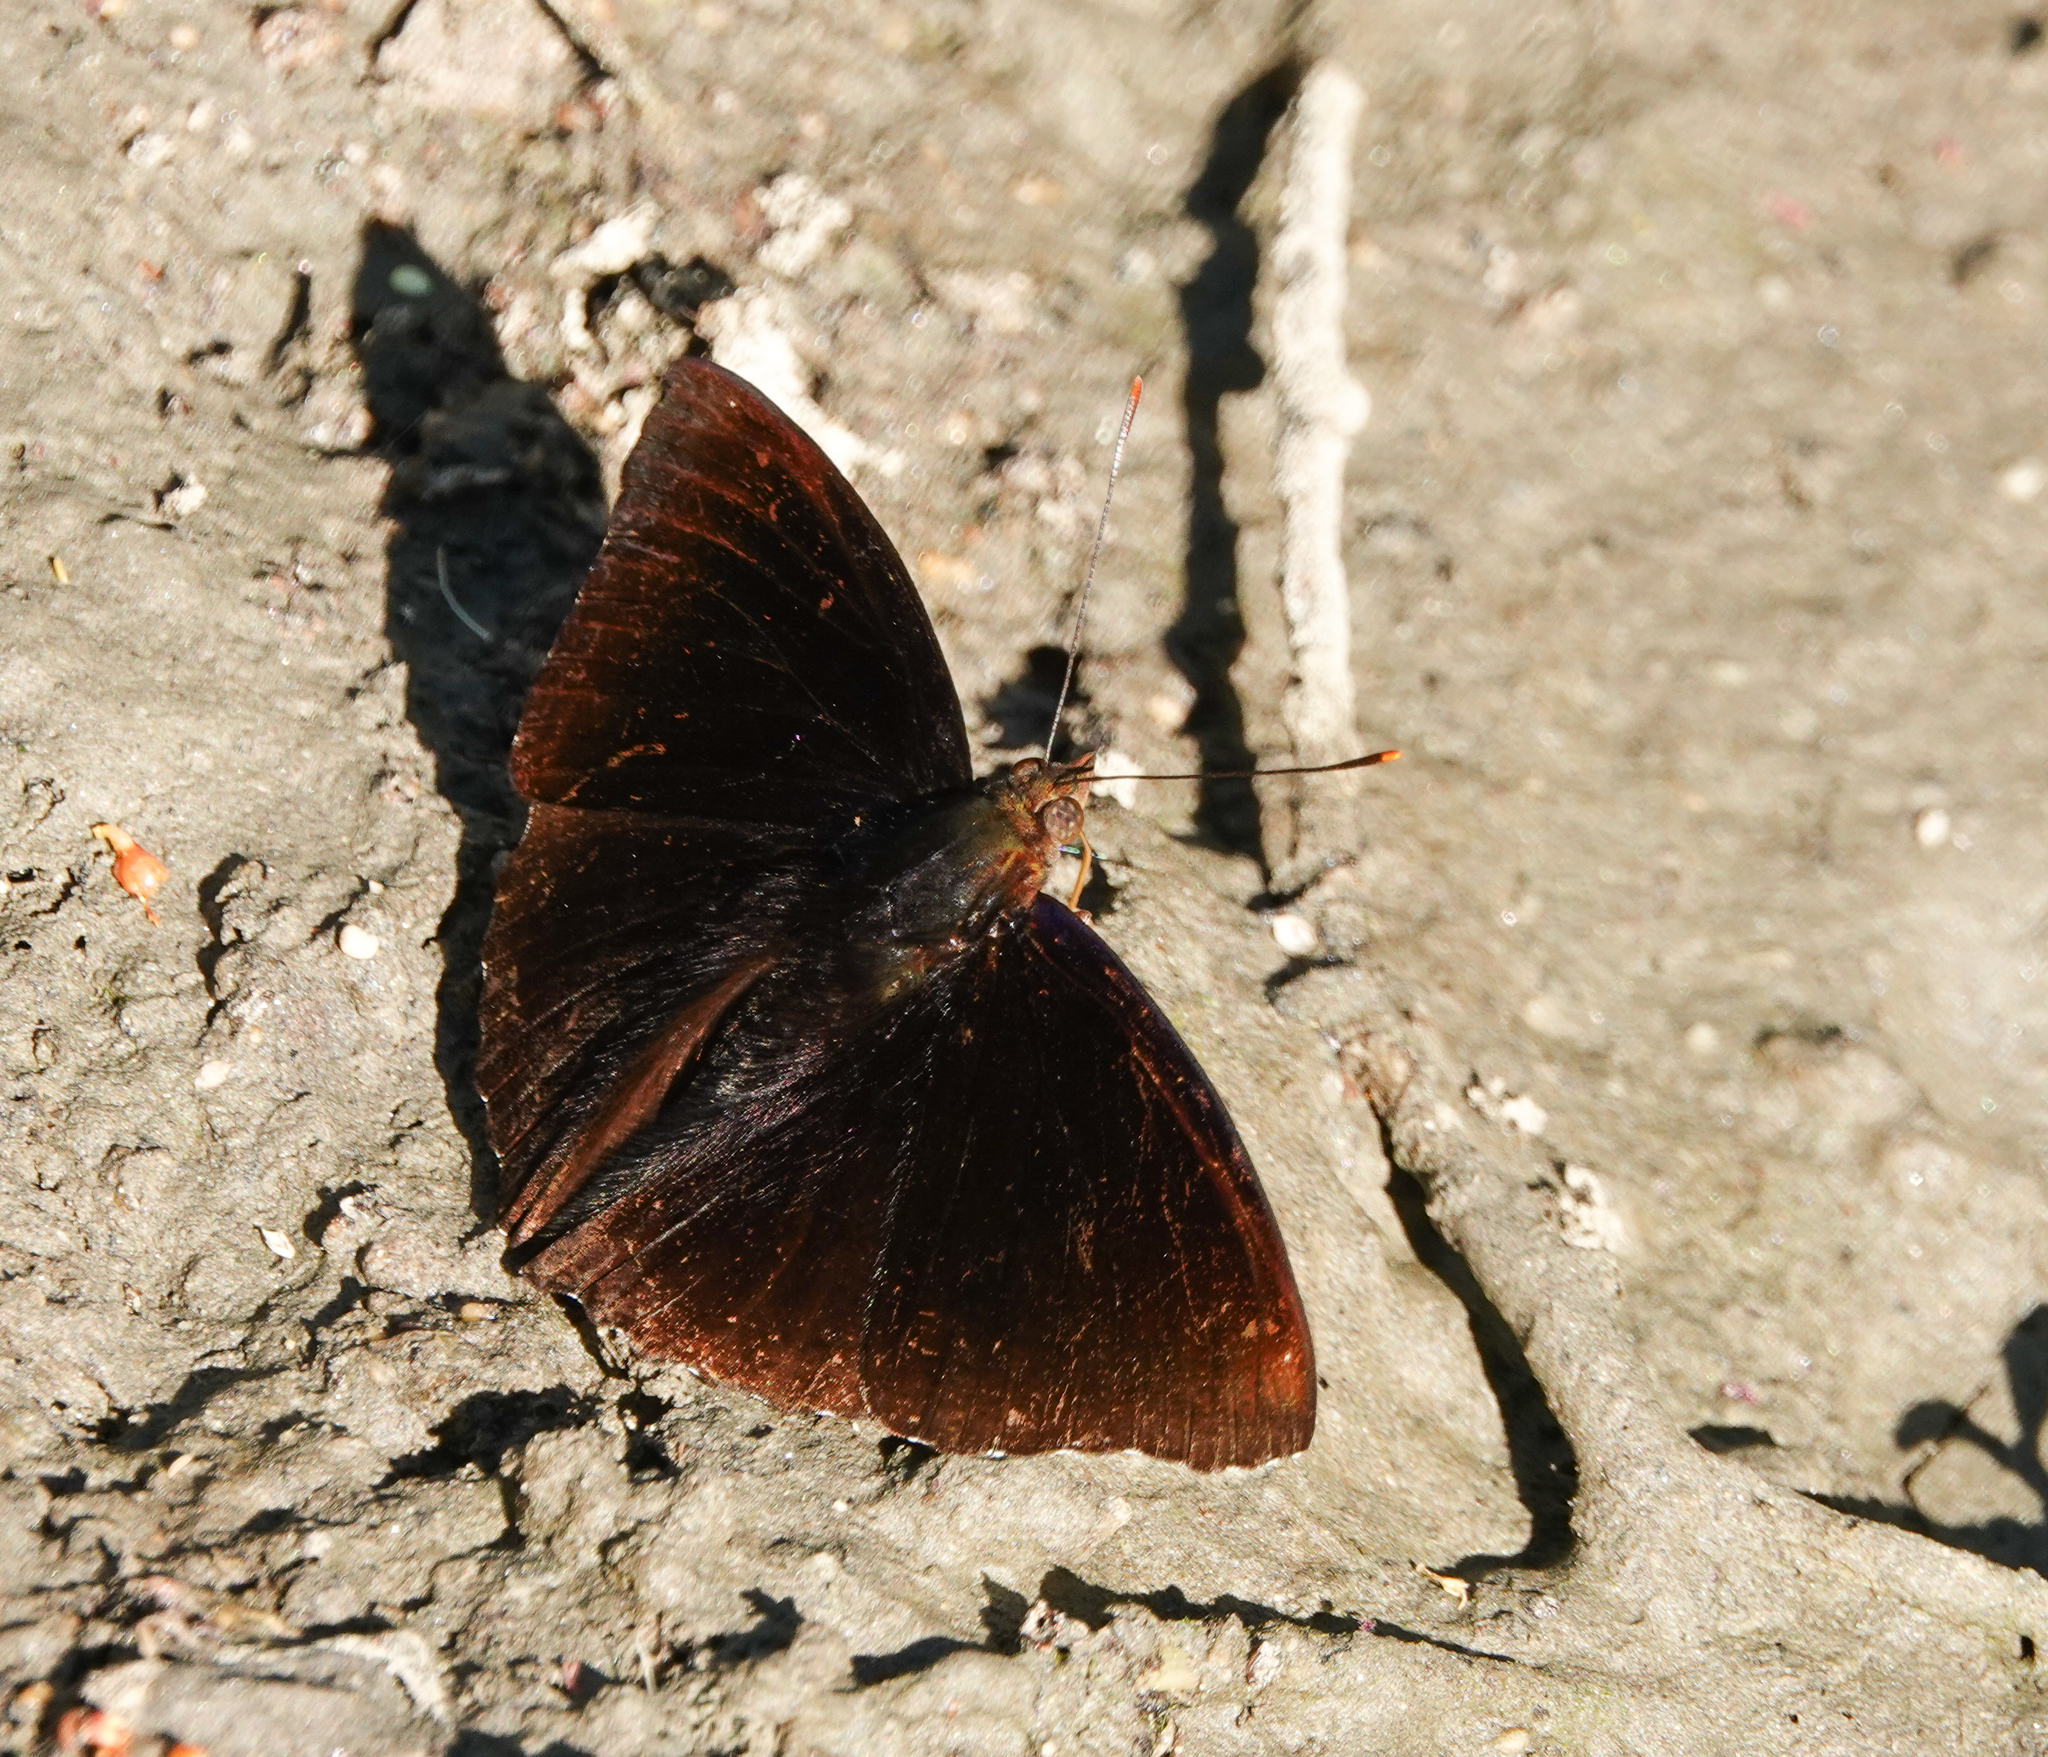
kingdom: Animalia
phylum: Arthropoda
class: Insecta
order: Lepidoptera
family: Nymphalidae
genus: Apatura
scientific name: Apatura Rohana spec
